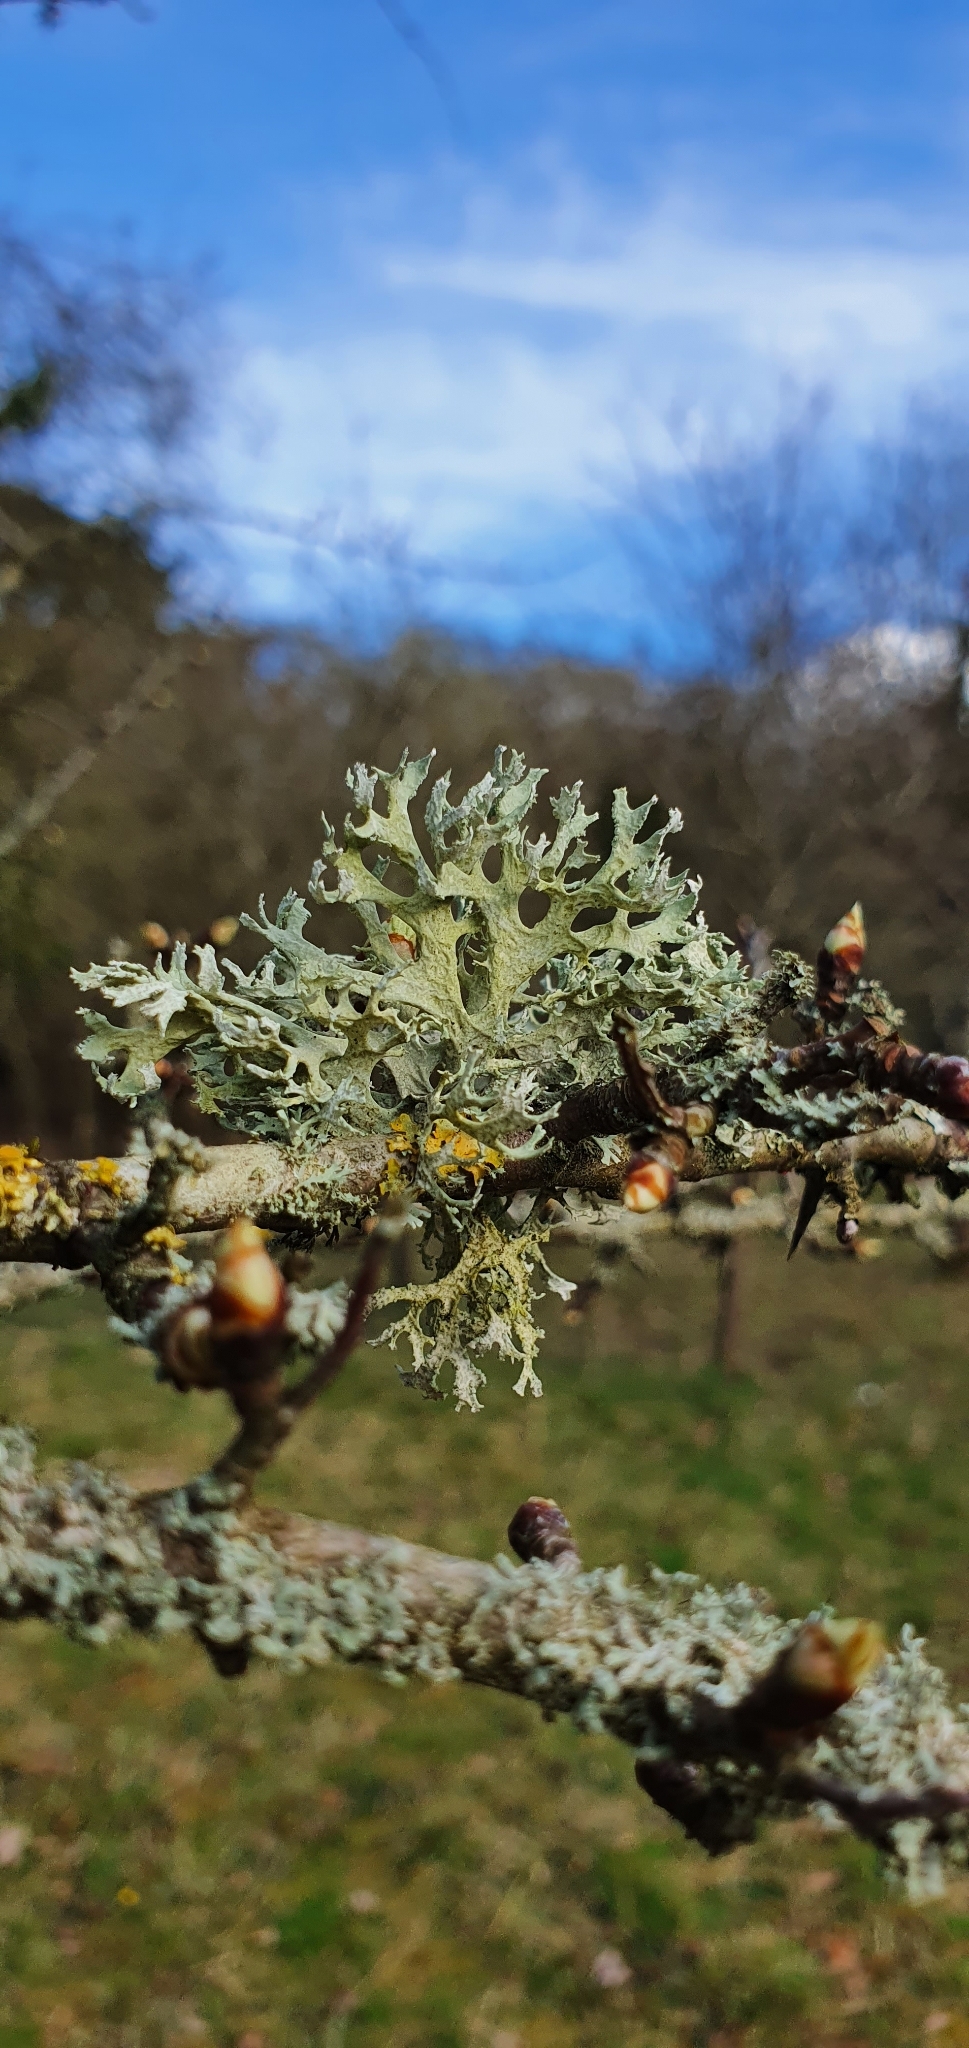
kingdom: Fungi
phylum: Ascomycota
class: Lecanoromycetes
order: Lecanorales
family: Parmeliaceae
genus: Evernia
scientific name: Evernia prunastri
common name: Oak moss
